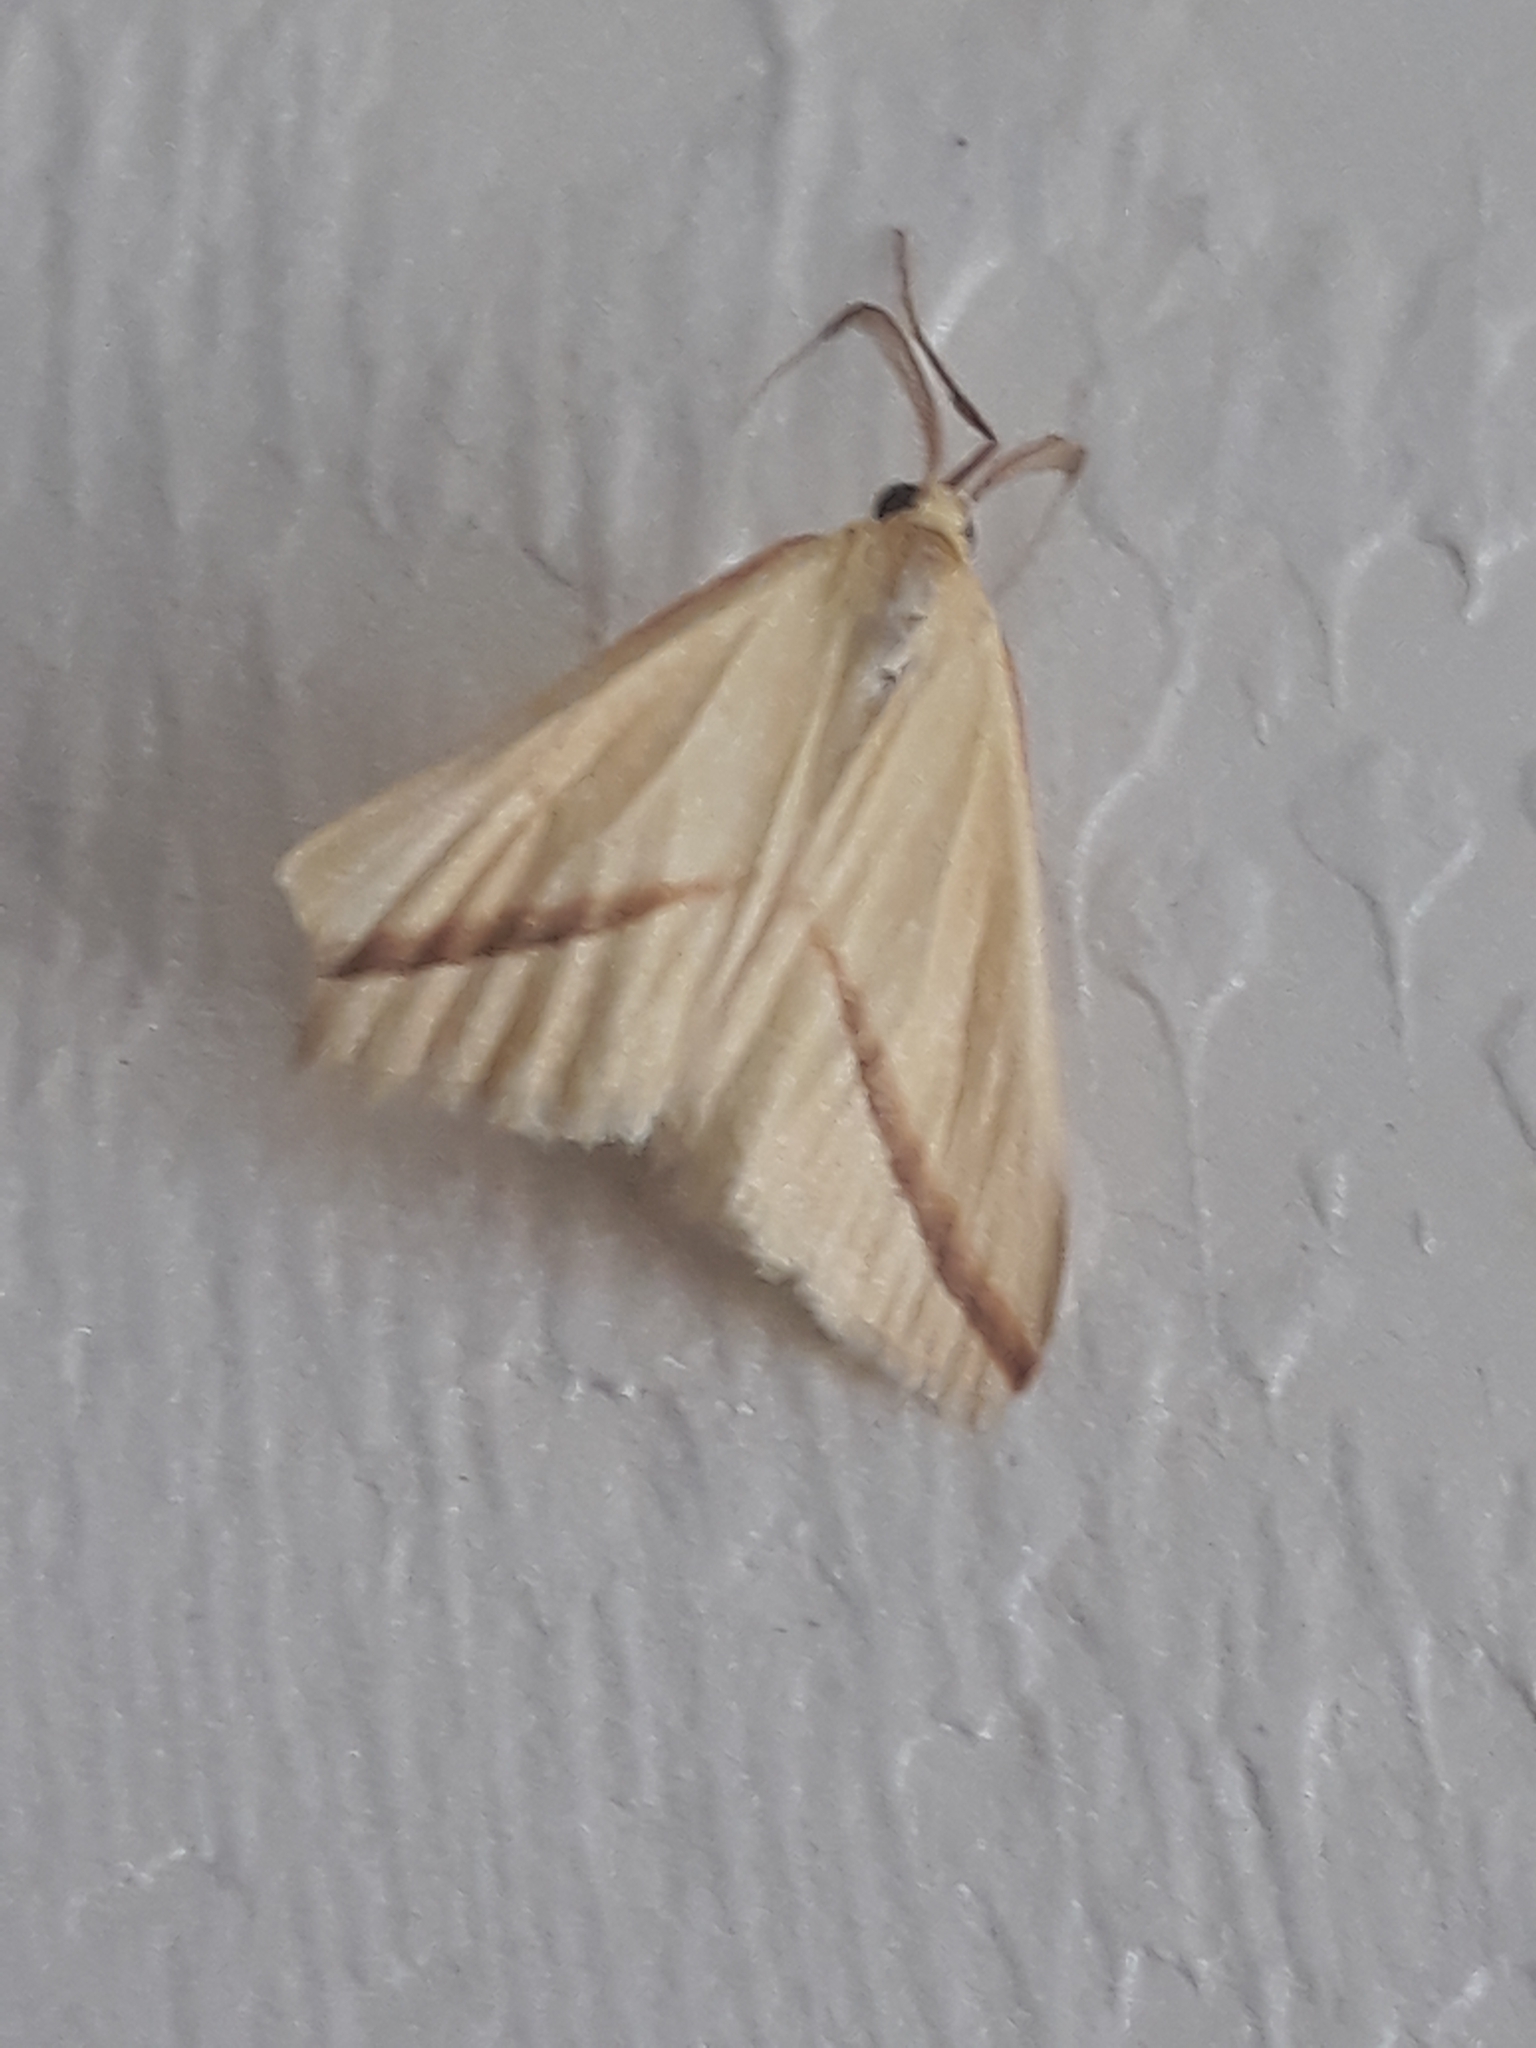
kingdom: Animalia
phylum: Arthropoda
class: Insecta
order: Lepidoptera
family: Geometridae
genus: Rhodometra
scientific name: Rhodometra sacraria
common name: Vestal
